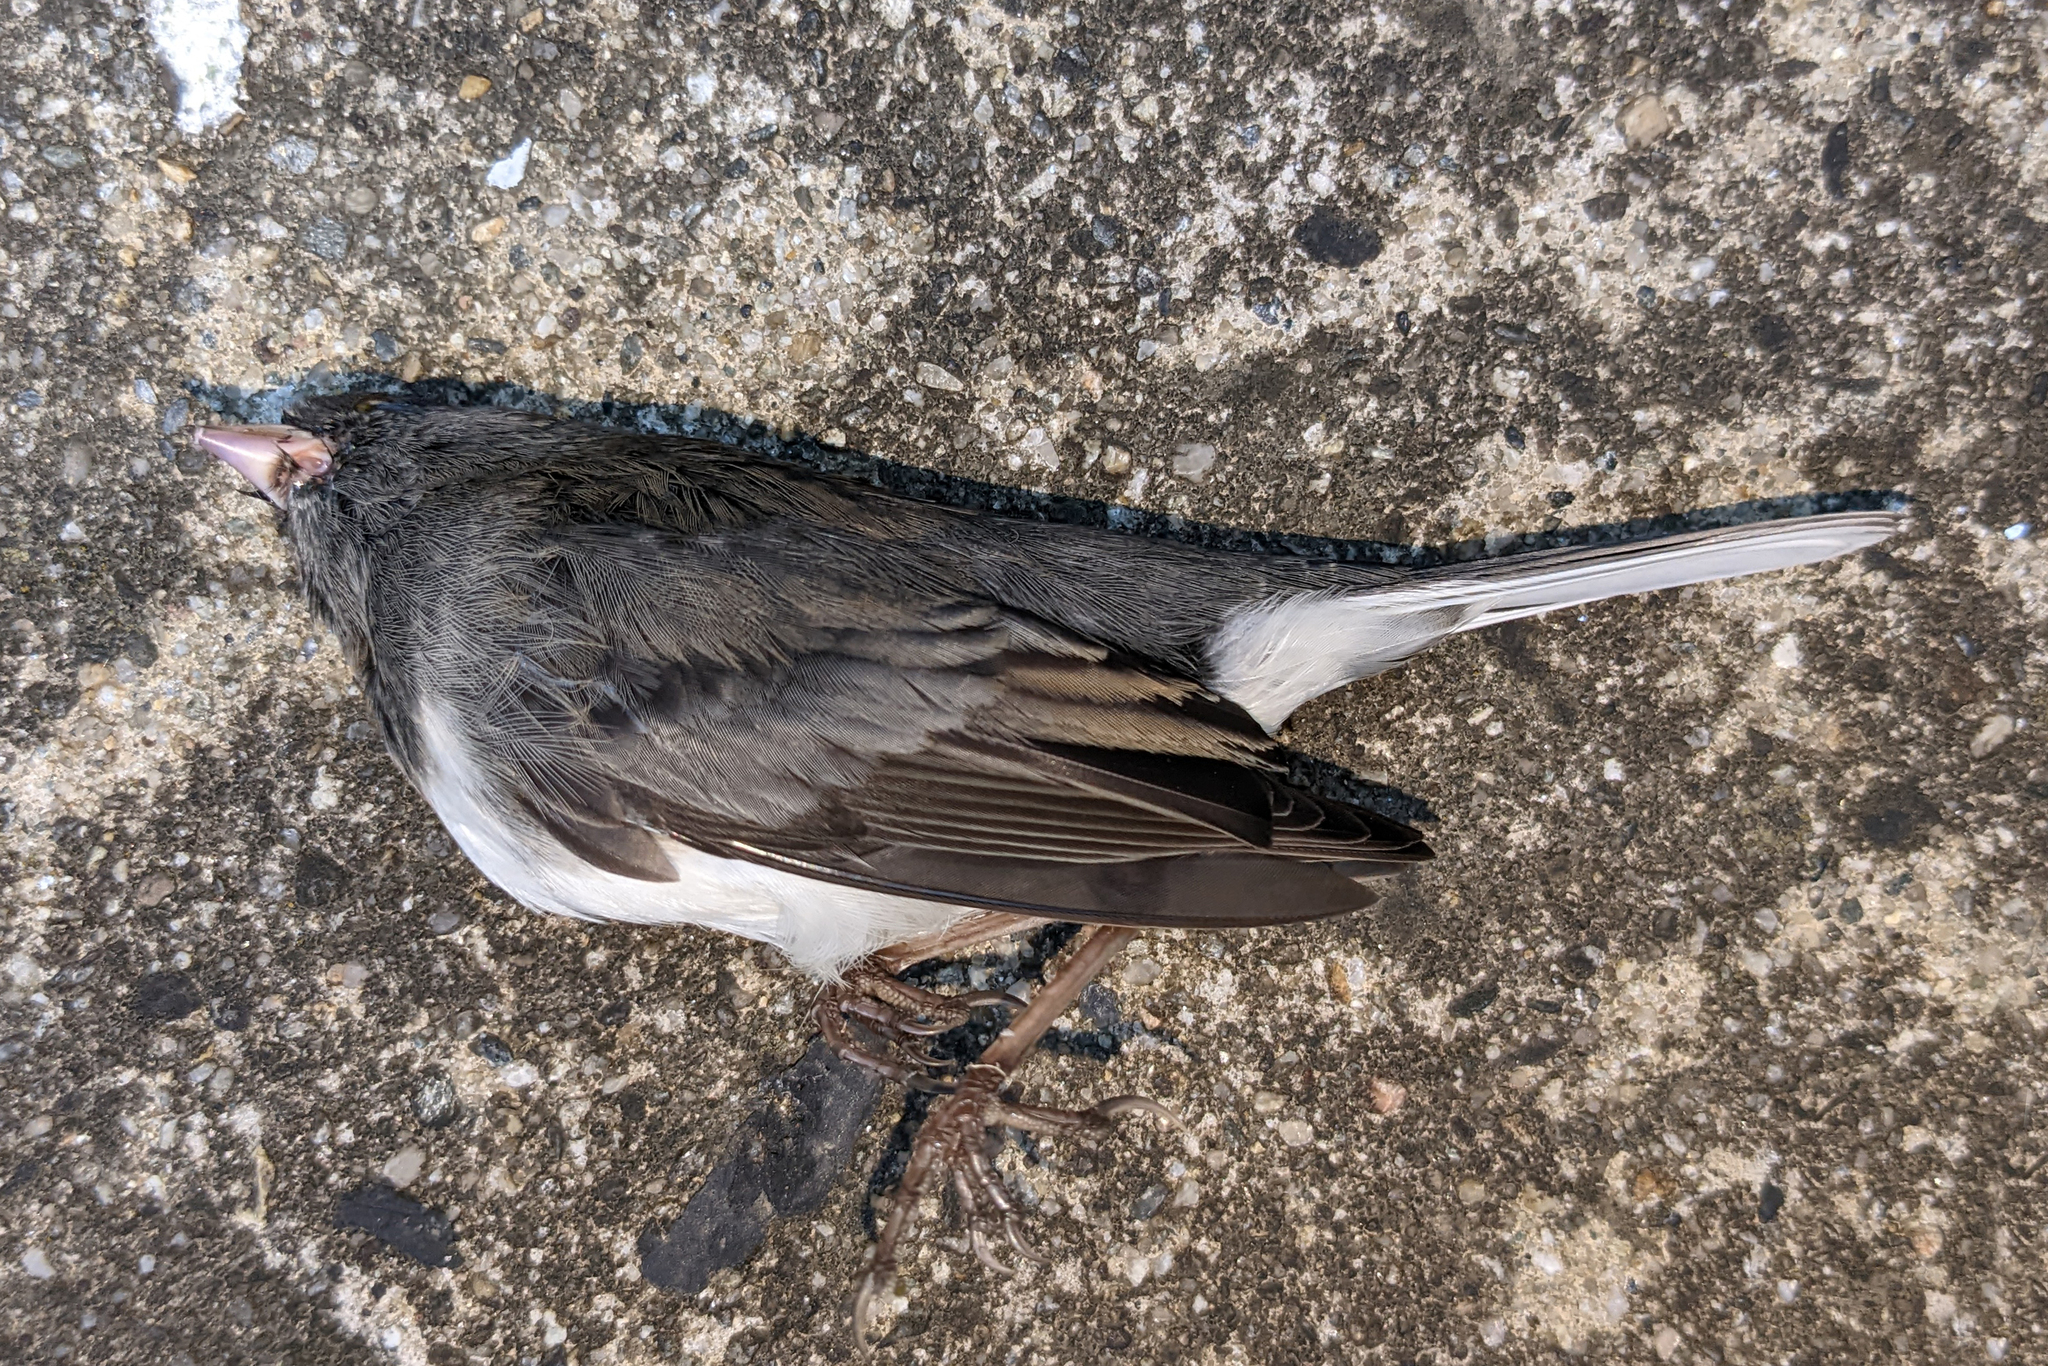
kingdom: Animalia
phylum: Chordata
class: Aves
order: Passeriformes
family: Passerellidae
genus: Junco
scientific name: Junco hyemalis
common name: Dark-eyed junco
